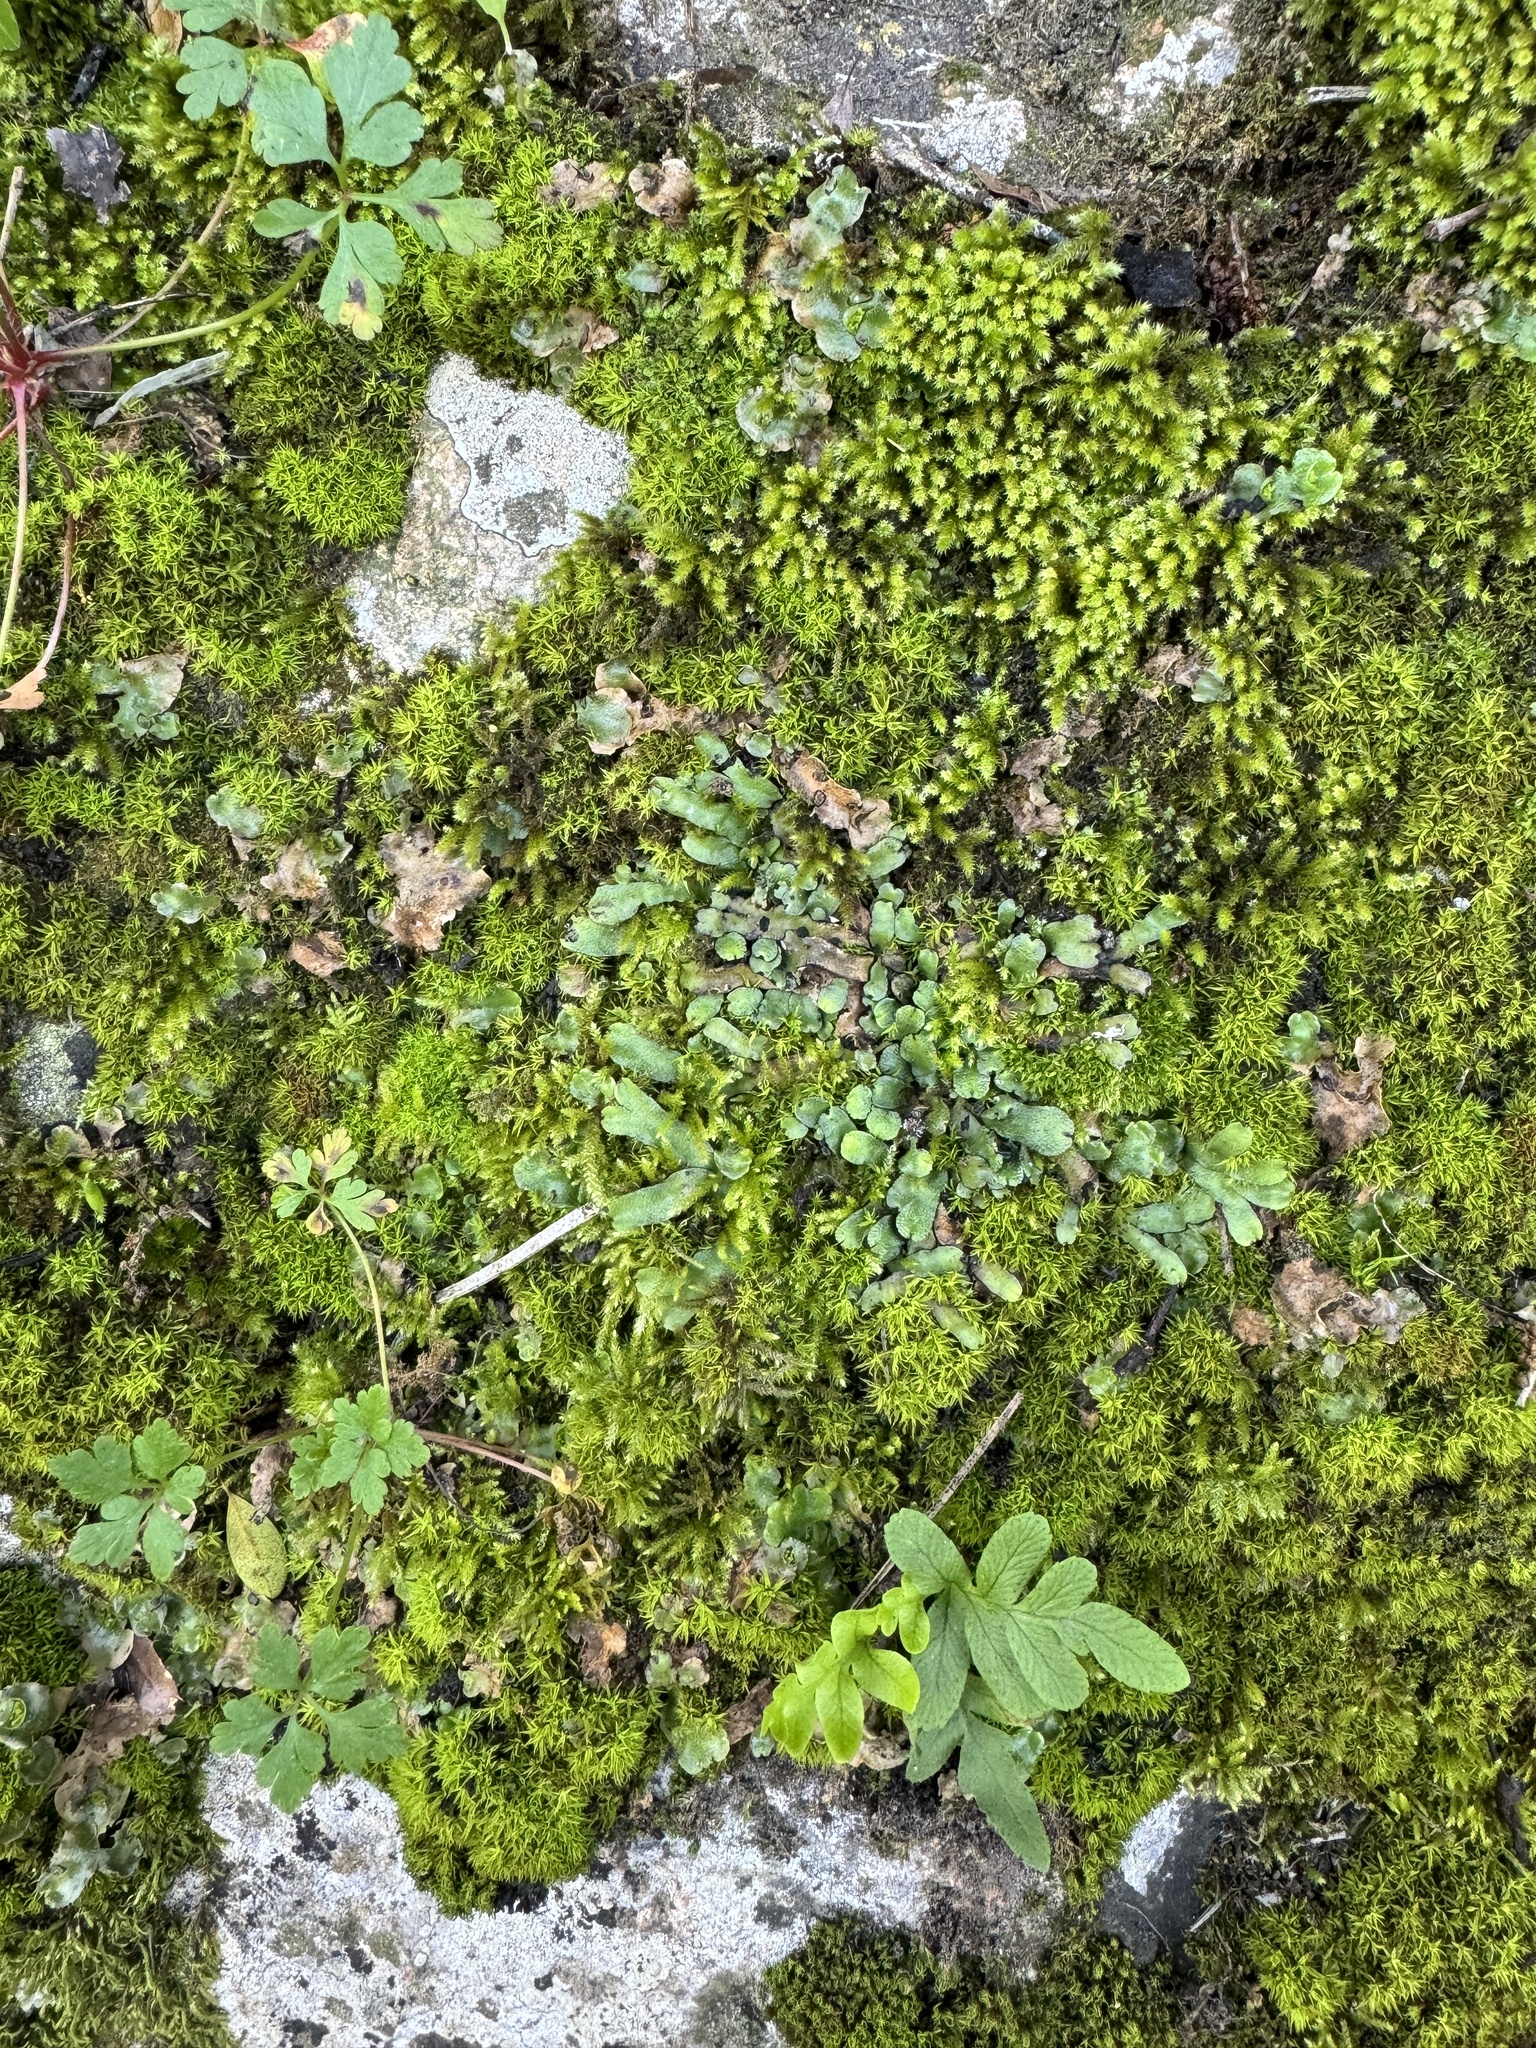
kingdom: Plantae
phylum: Marchantiophyta
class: Marchantiopsida
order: Marchantiales
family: Targioniaceae
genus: Targionia
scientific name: Targionia hypophylla
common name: Orobus-seed liverwort
